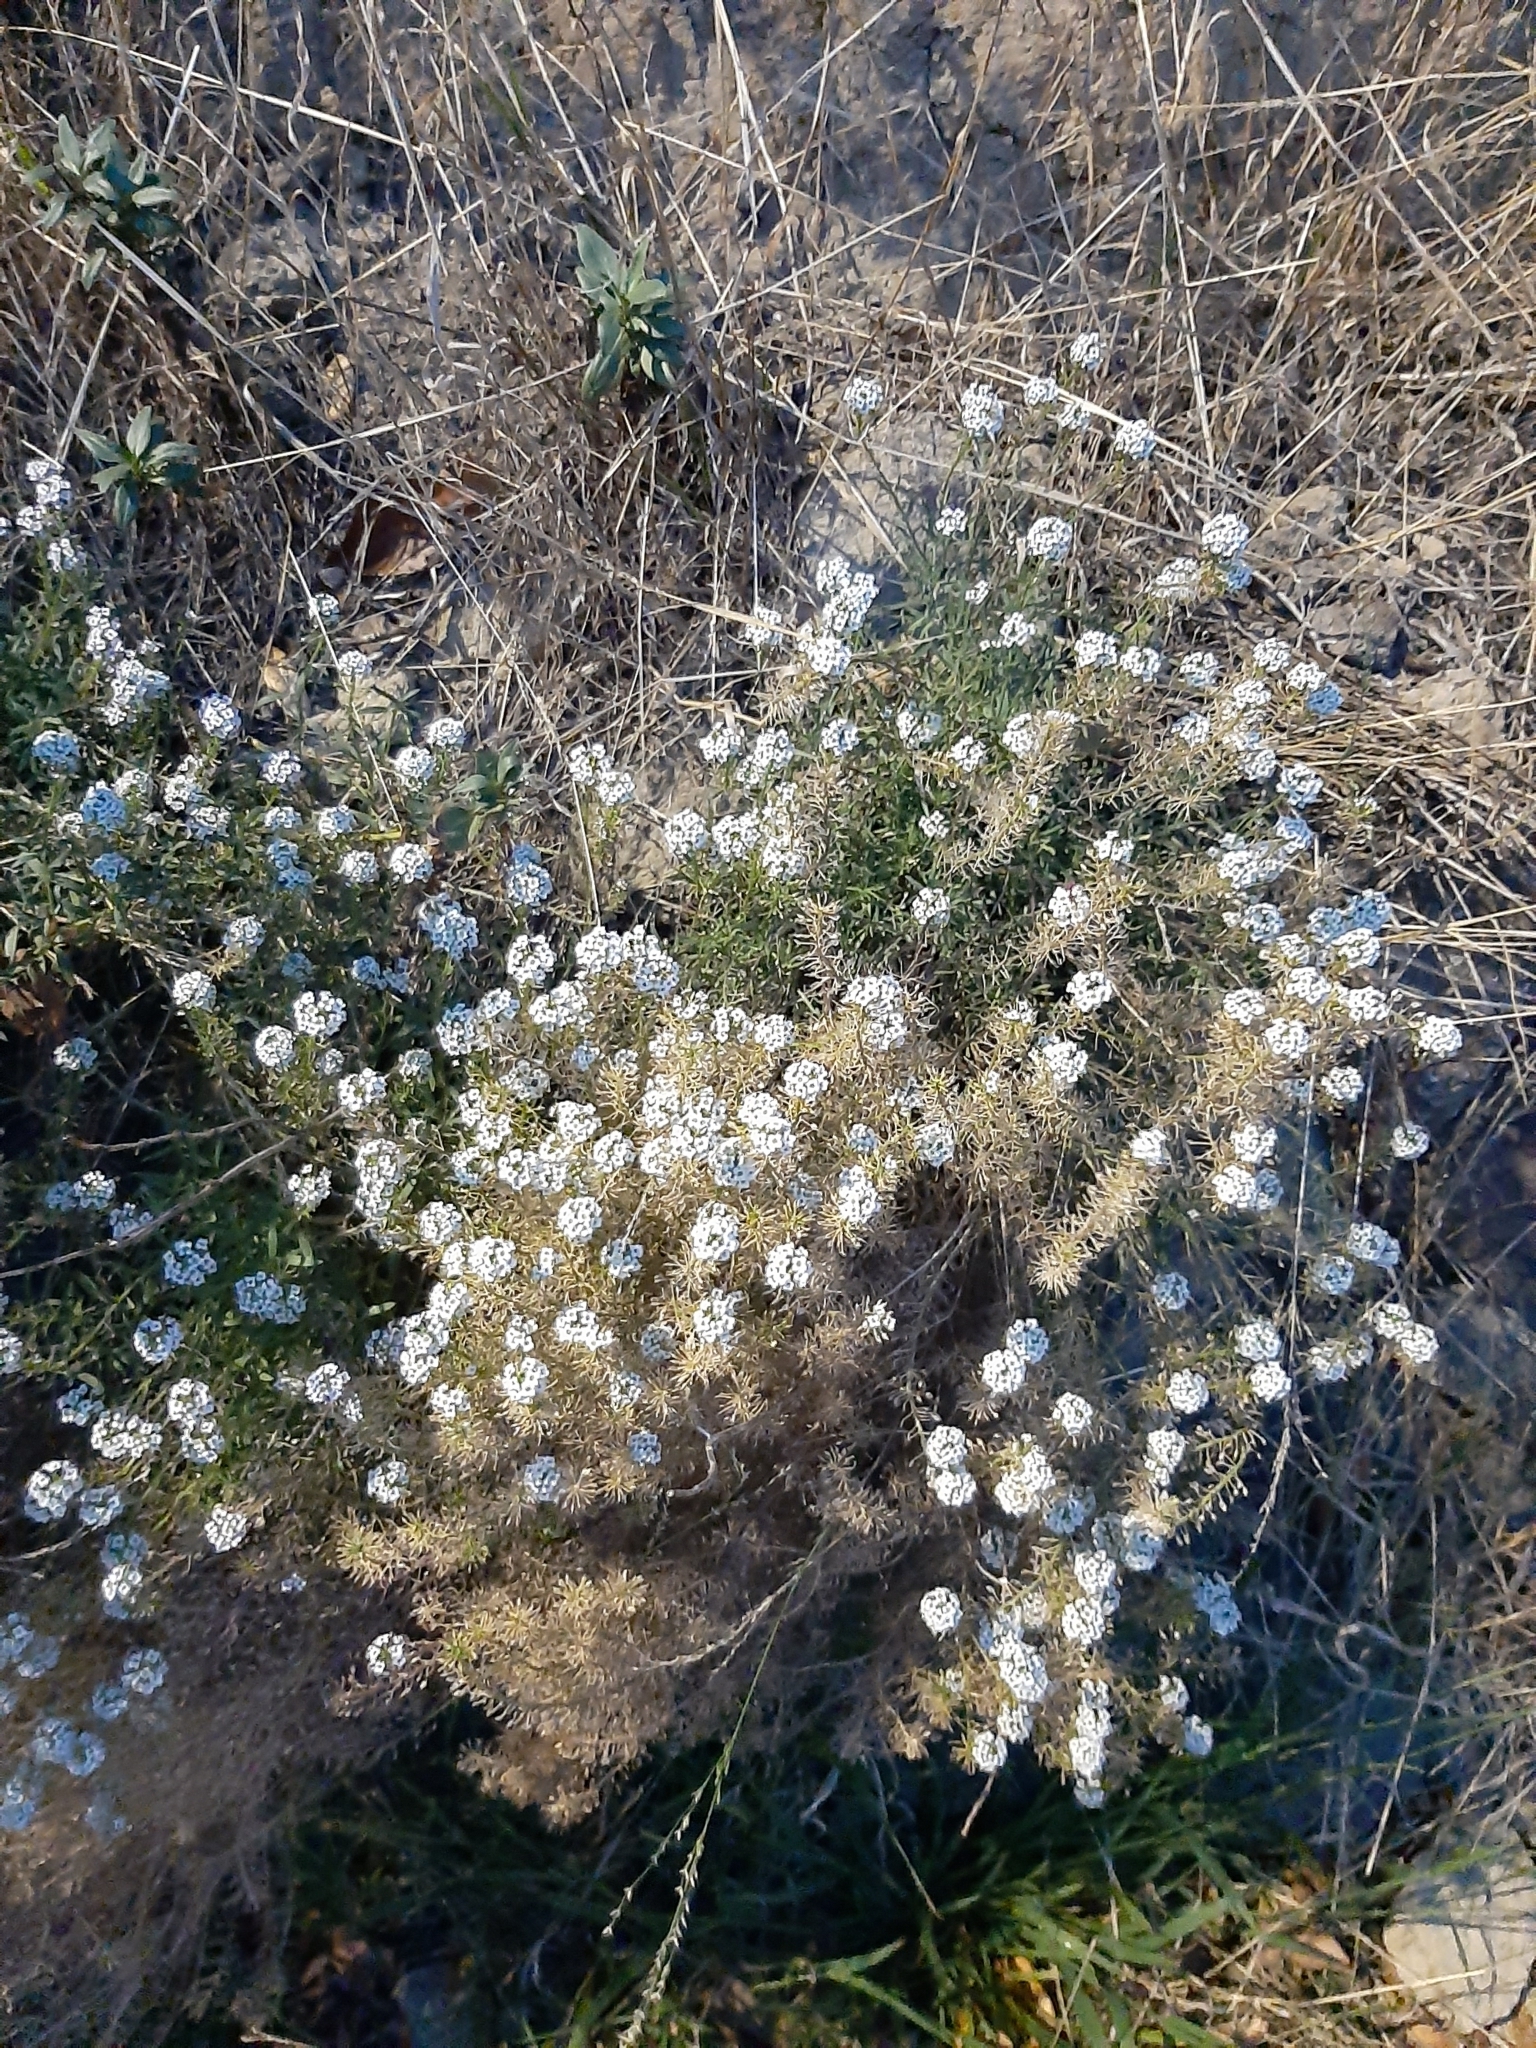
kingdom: Plantae
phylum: Tracheophyta
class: Magnoliopsida
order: Brassicales
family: Brassicaceae
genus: Lobularia
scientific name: Lobularia maritima
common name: Sweet alison
